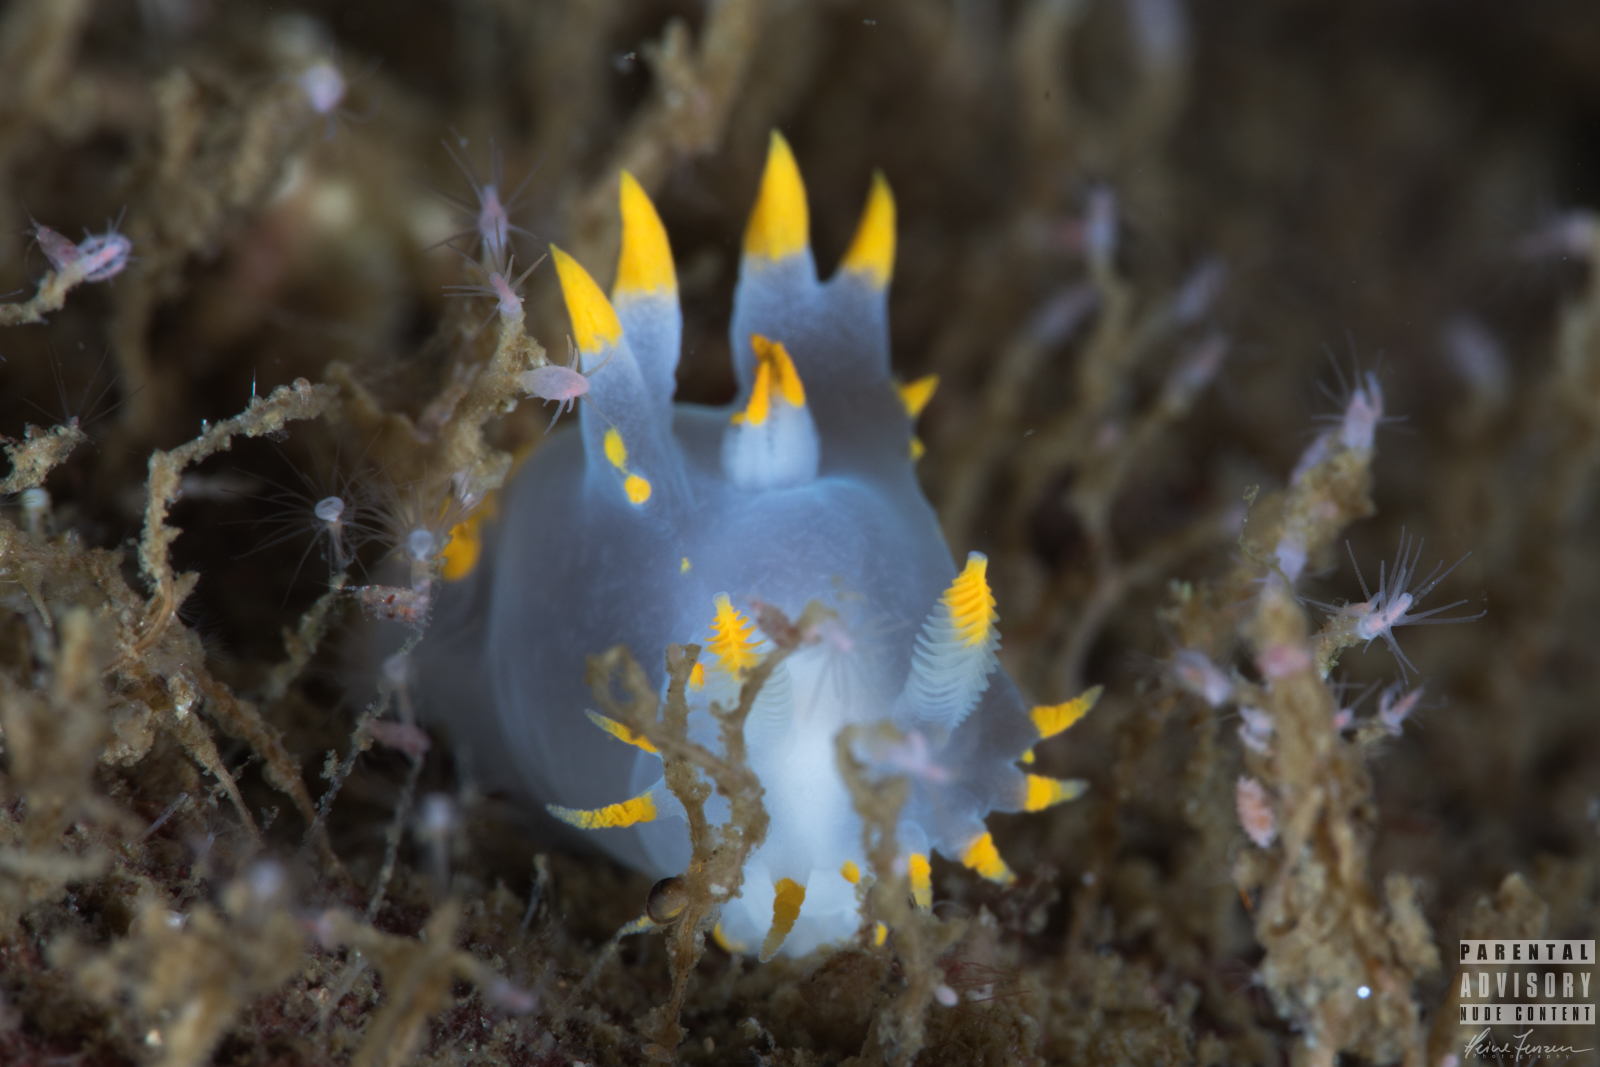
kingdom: Animalia
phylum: Mollusca
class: Gastropoda
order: Nudibranchia
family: Polyceridae
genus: Polycera
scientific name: Polycera faeroensis
